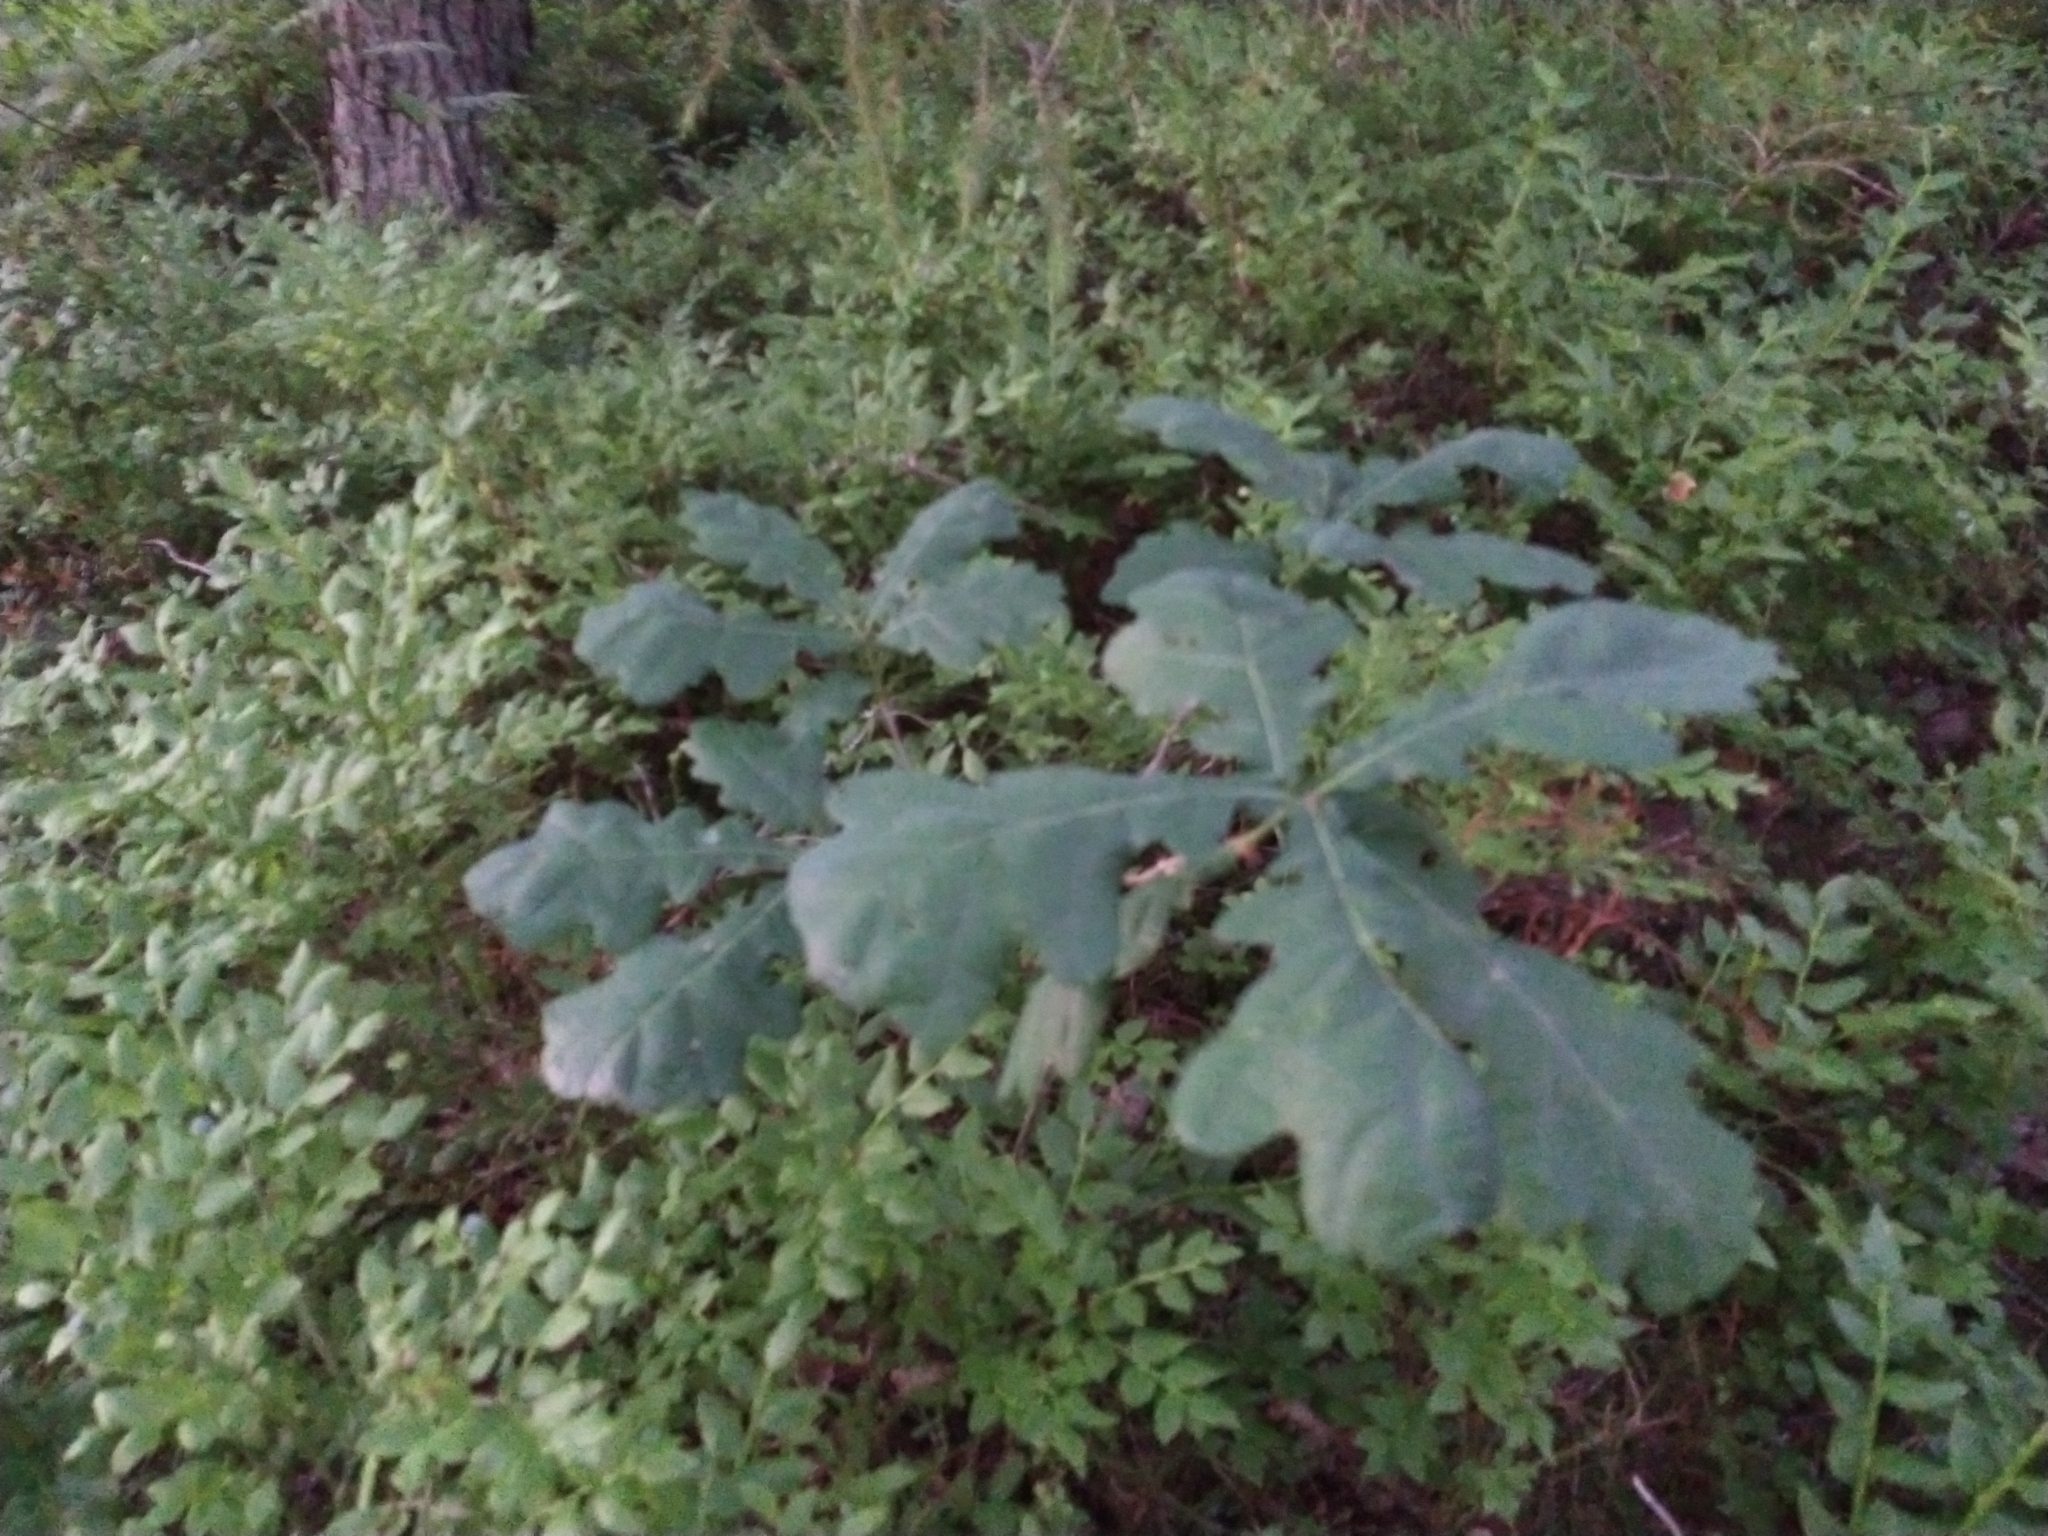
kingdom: Plantae
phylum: Tracheophyta
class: Magnoliopsida
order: Fagales
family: Fagaceae
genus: Quercus
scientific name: Quercus robur
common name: Pedunculate oak
